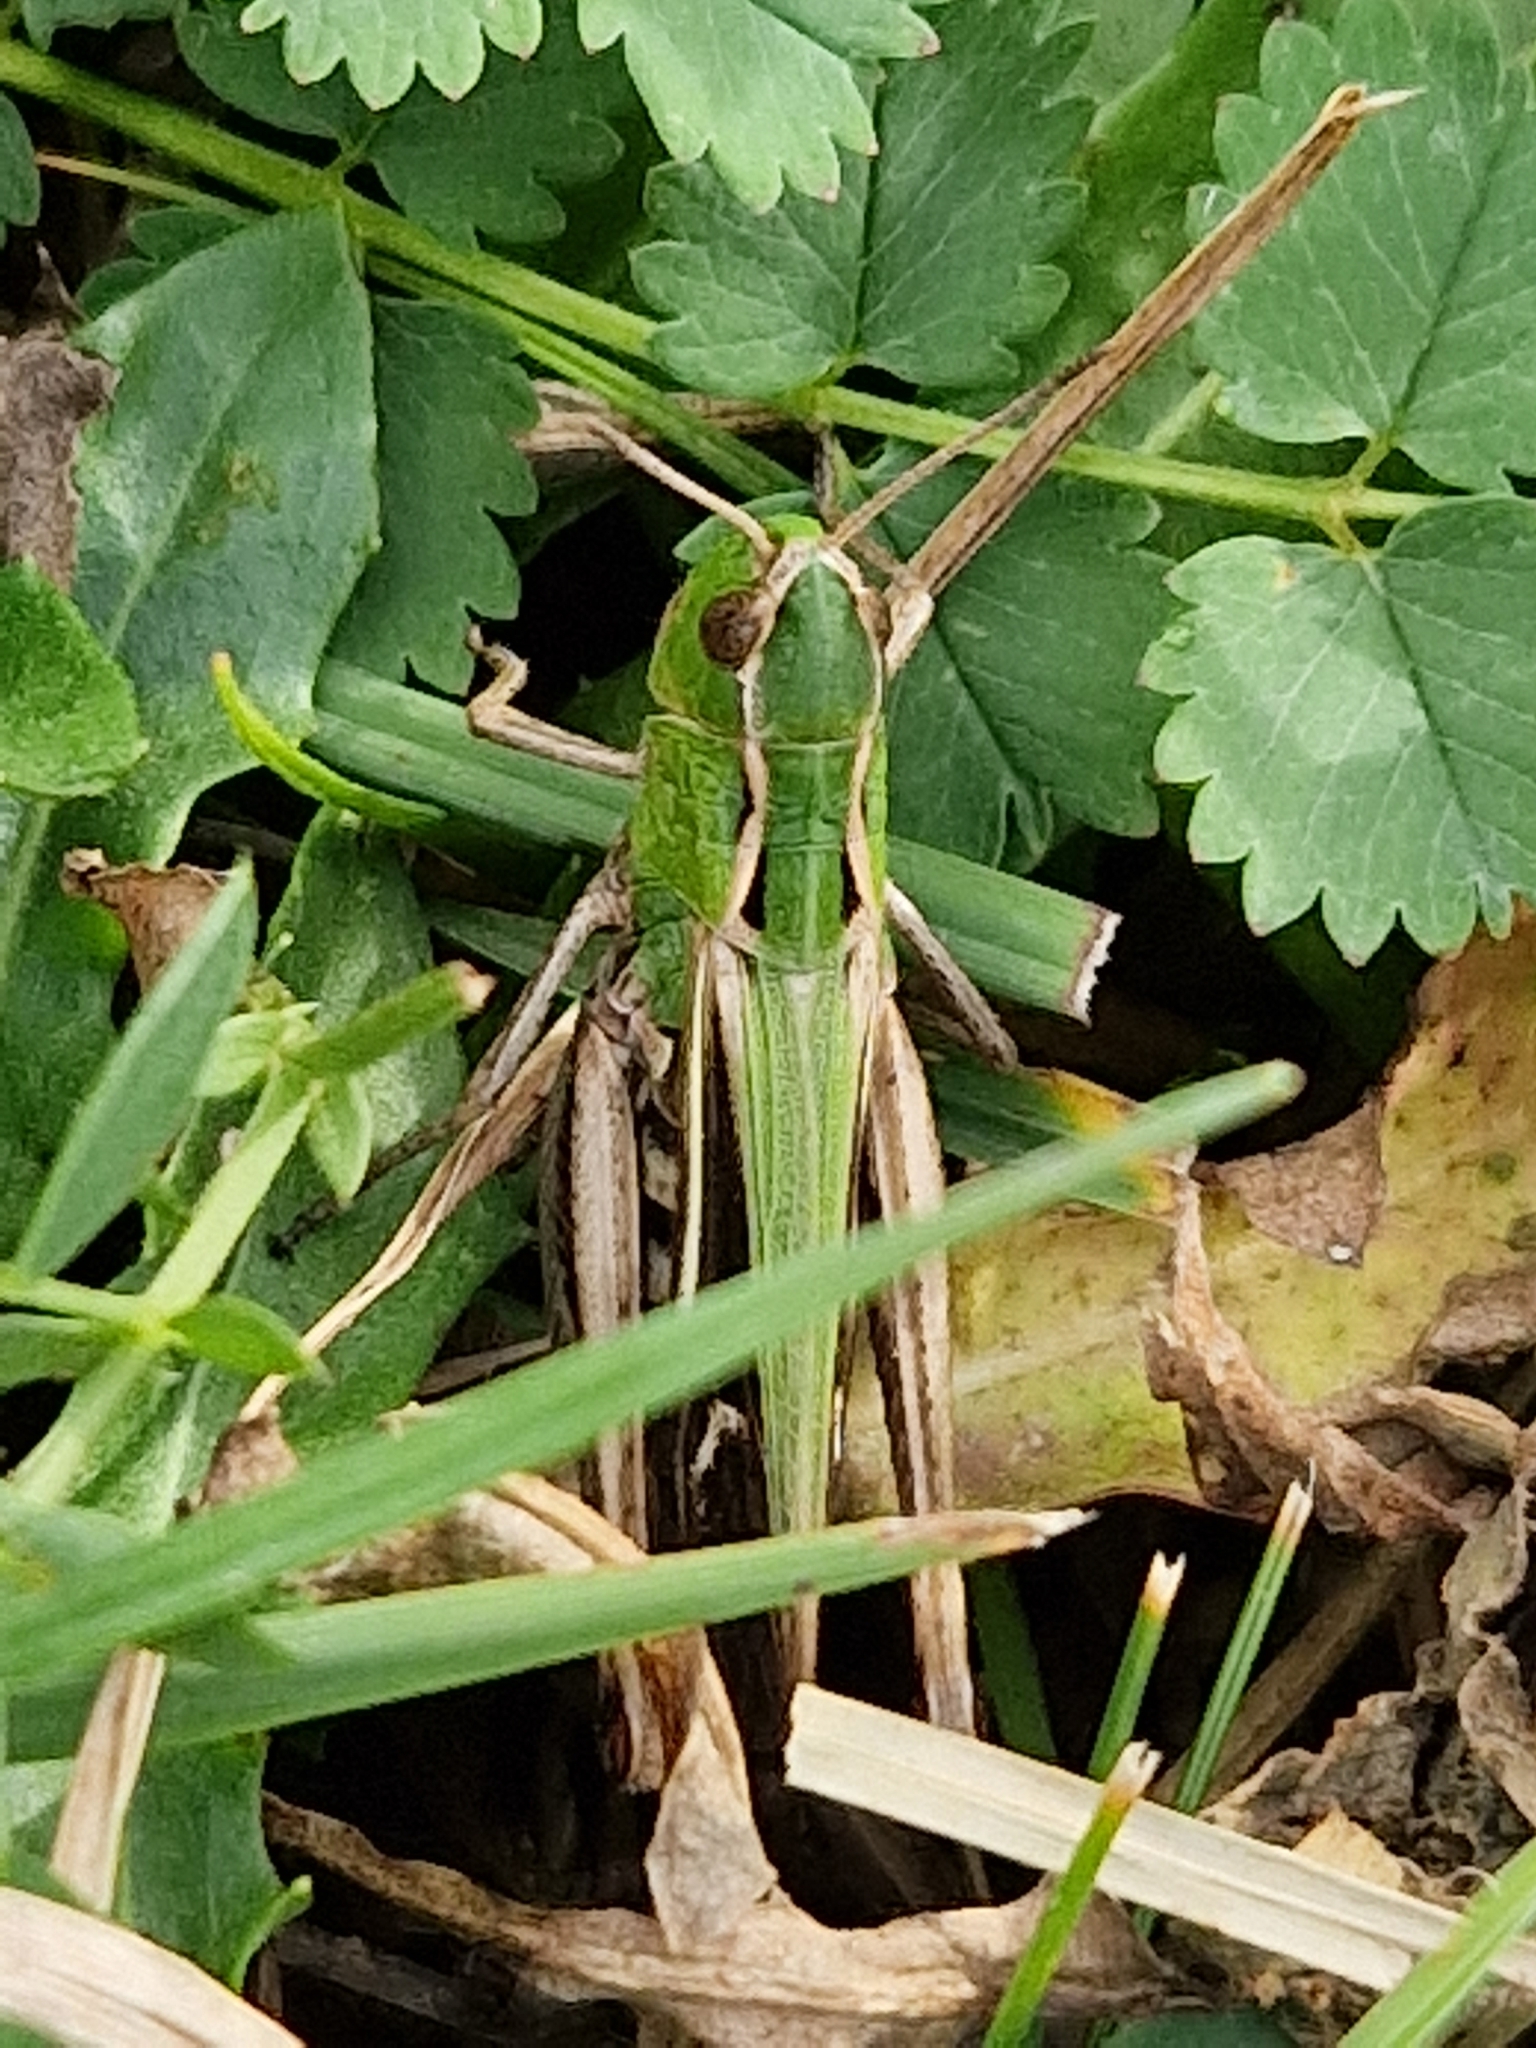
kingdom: Animalia
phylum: Arthropoda
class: Insecta
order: Orthoptera
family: Acrididae
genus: Stenobothrus
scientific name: Stenobothrus lineatus
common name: Stripe-winged grasshopper
